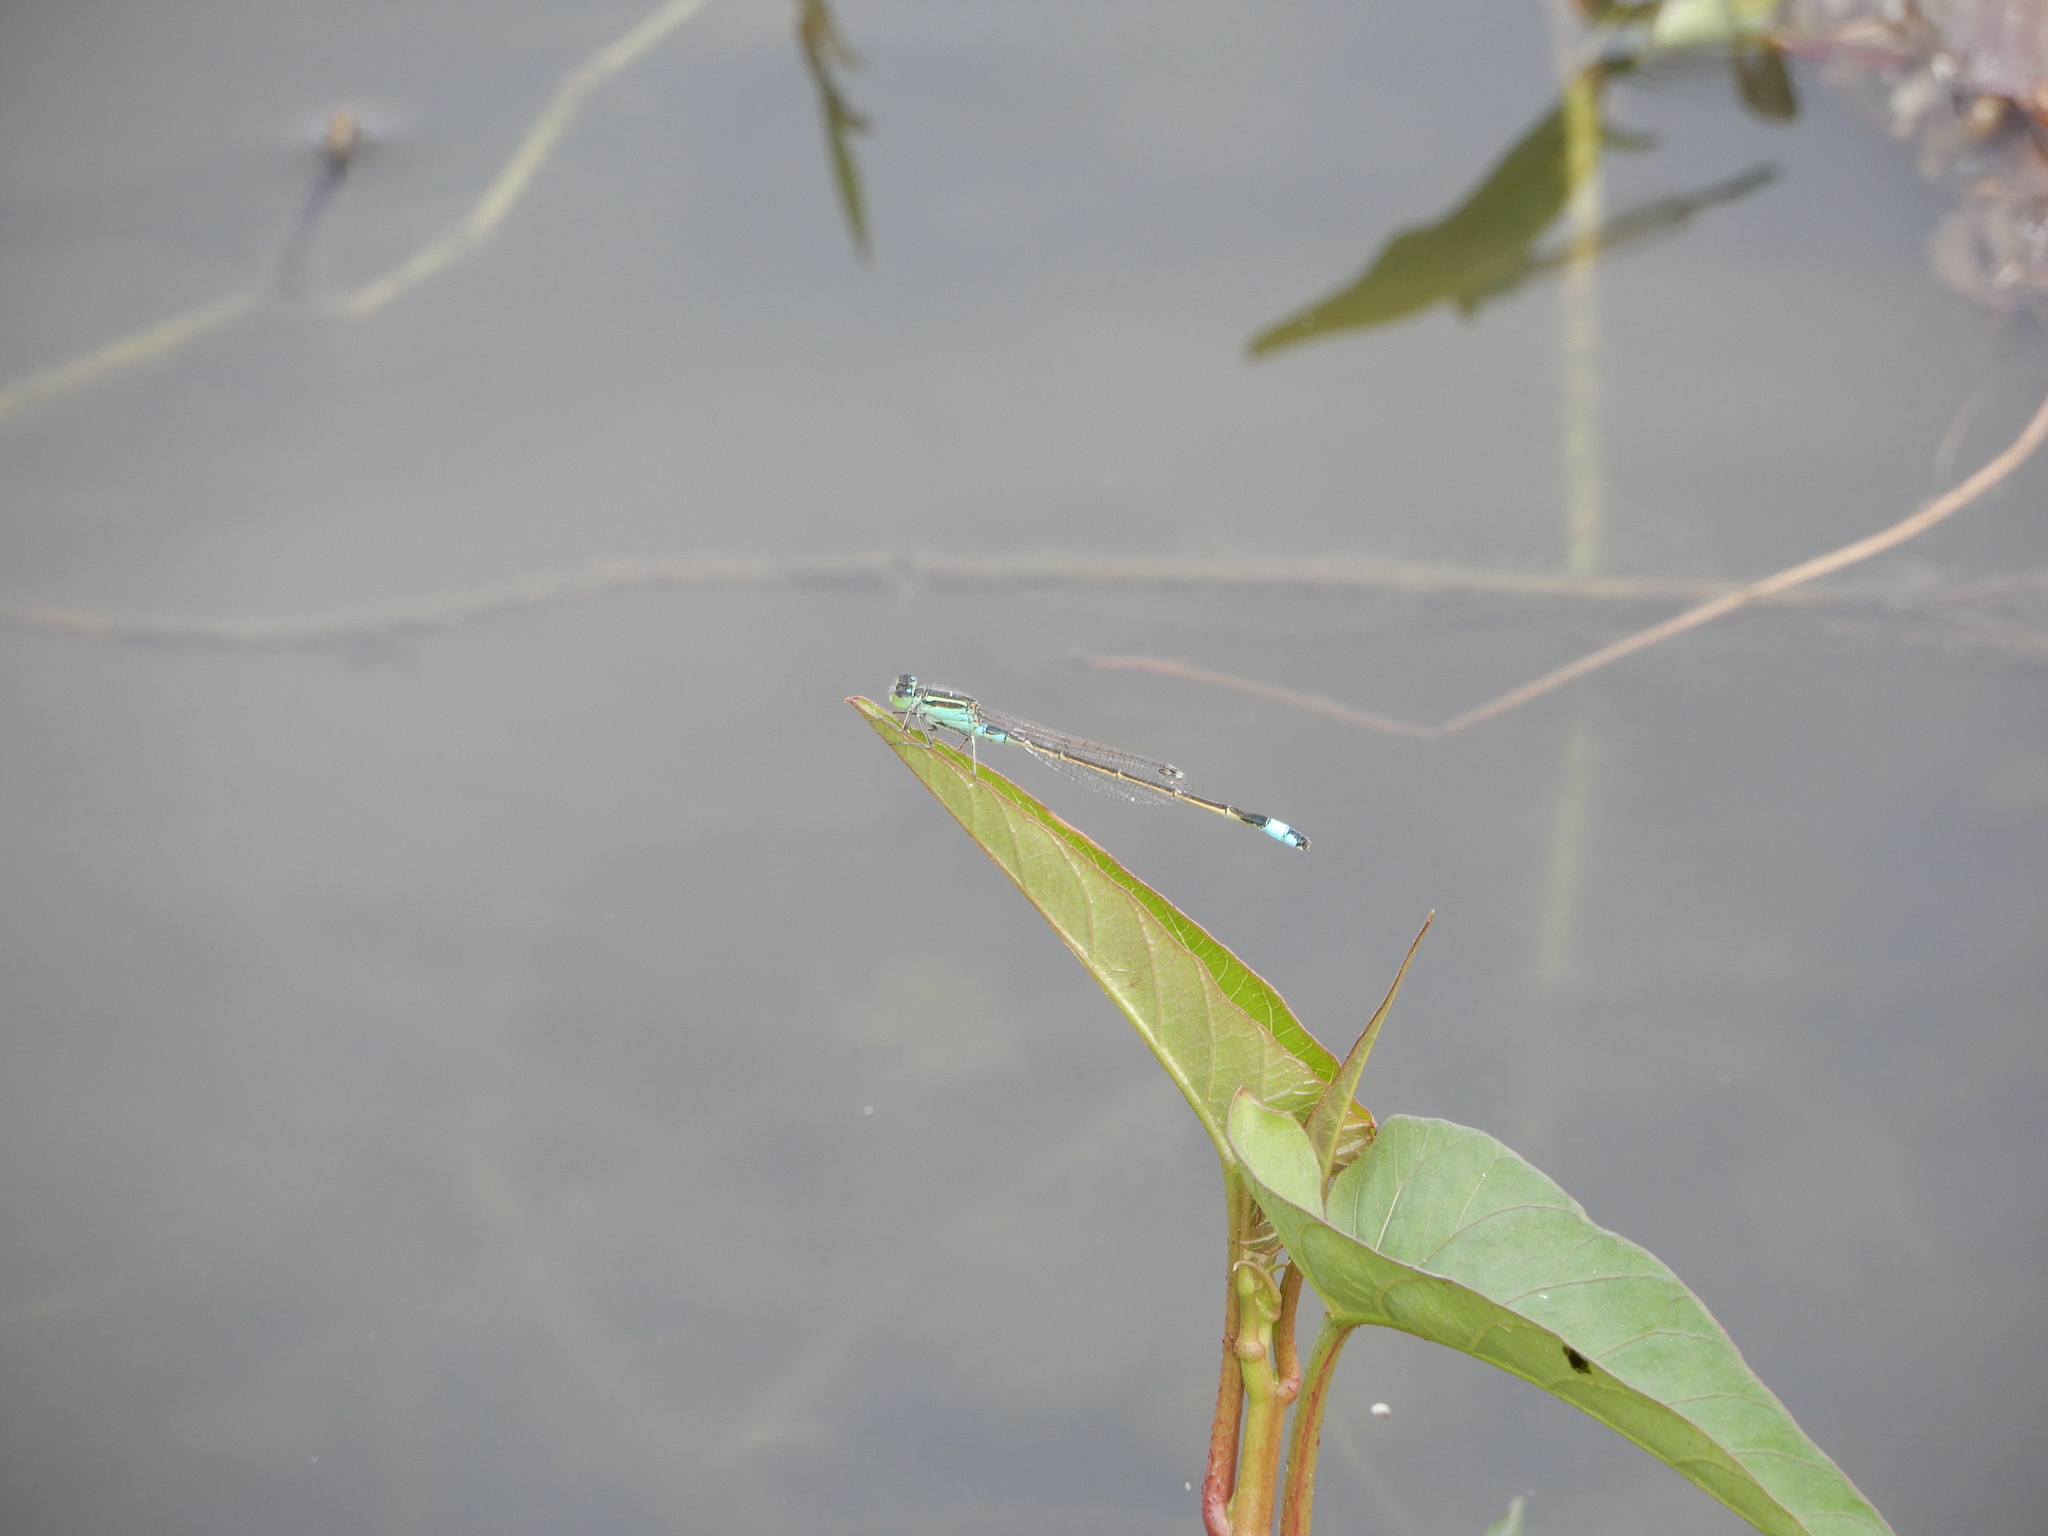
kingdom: Animalia
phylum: Arthropoda
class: Insecta
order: Odonata
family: Coenagrionidae
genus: Ischnura
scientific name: Ischnura senegalensis
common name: Tropical bluetail
